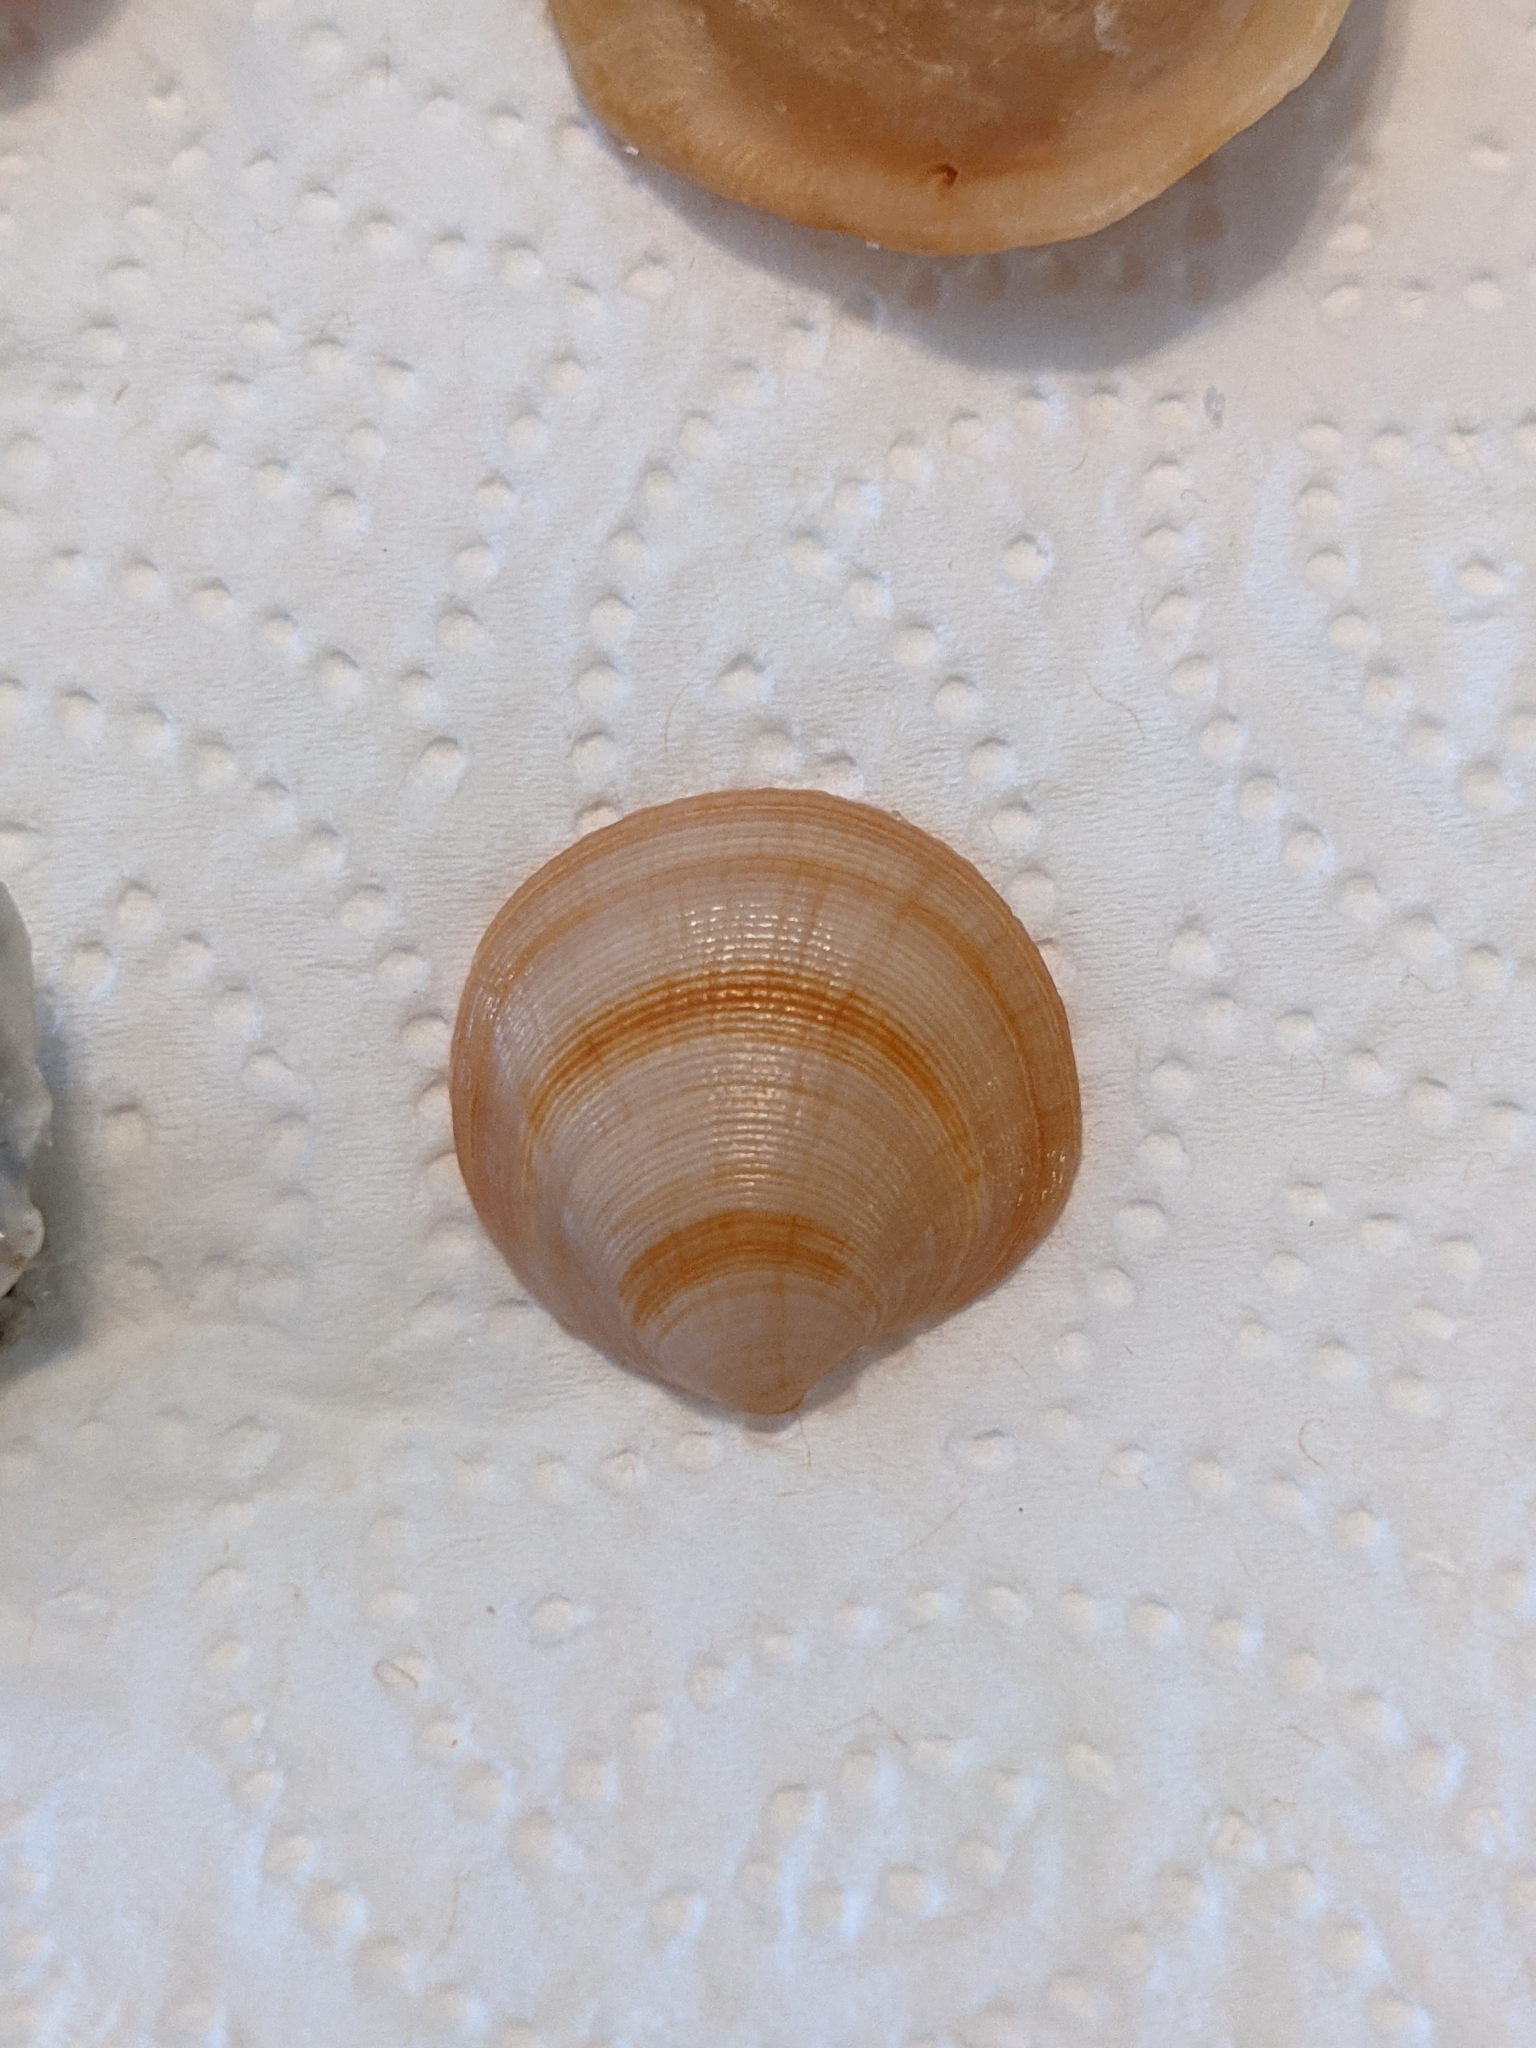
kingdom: Animalia
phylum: Mollusca
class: Bivalvia
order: Lucinida
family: Lucinidae
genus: Callucina
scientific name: Callucina keenae
